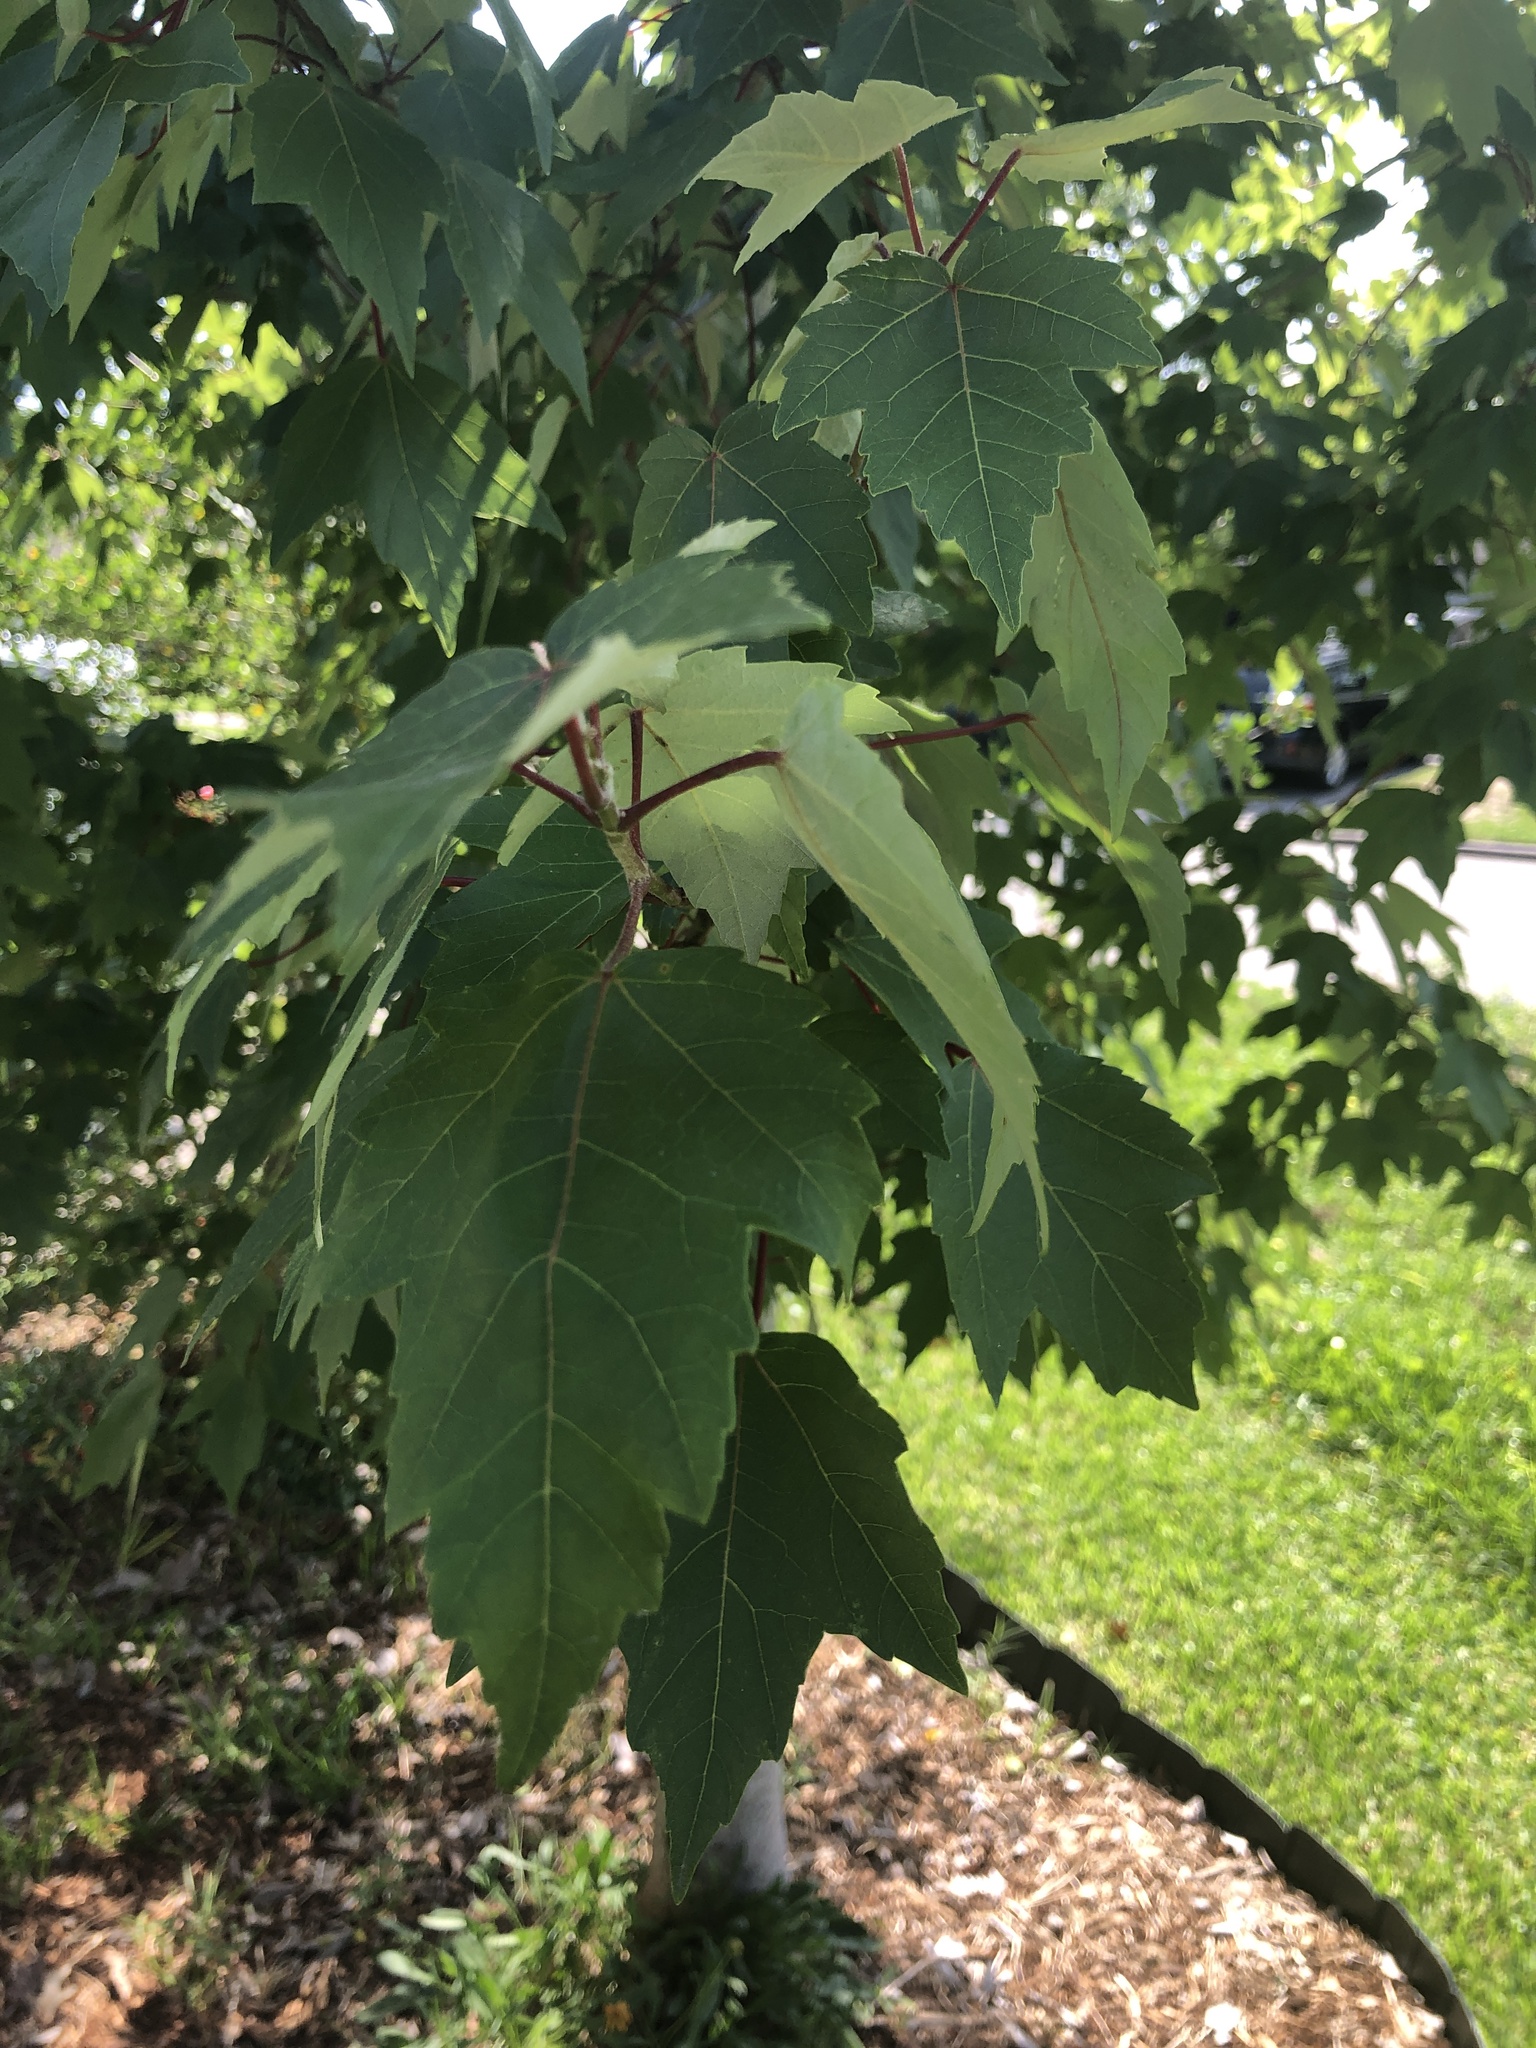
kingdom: Plantae
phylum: Tracheophyta
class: Magnoliopsida
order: Sapindales
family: Sapindaceae
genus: Acer
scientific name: Acer rubrum
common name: Red maple
